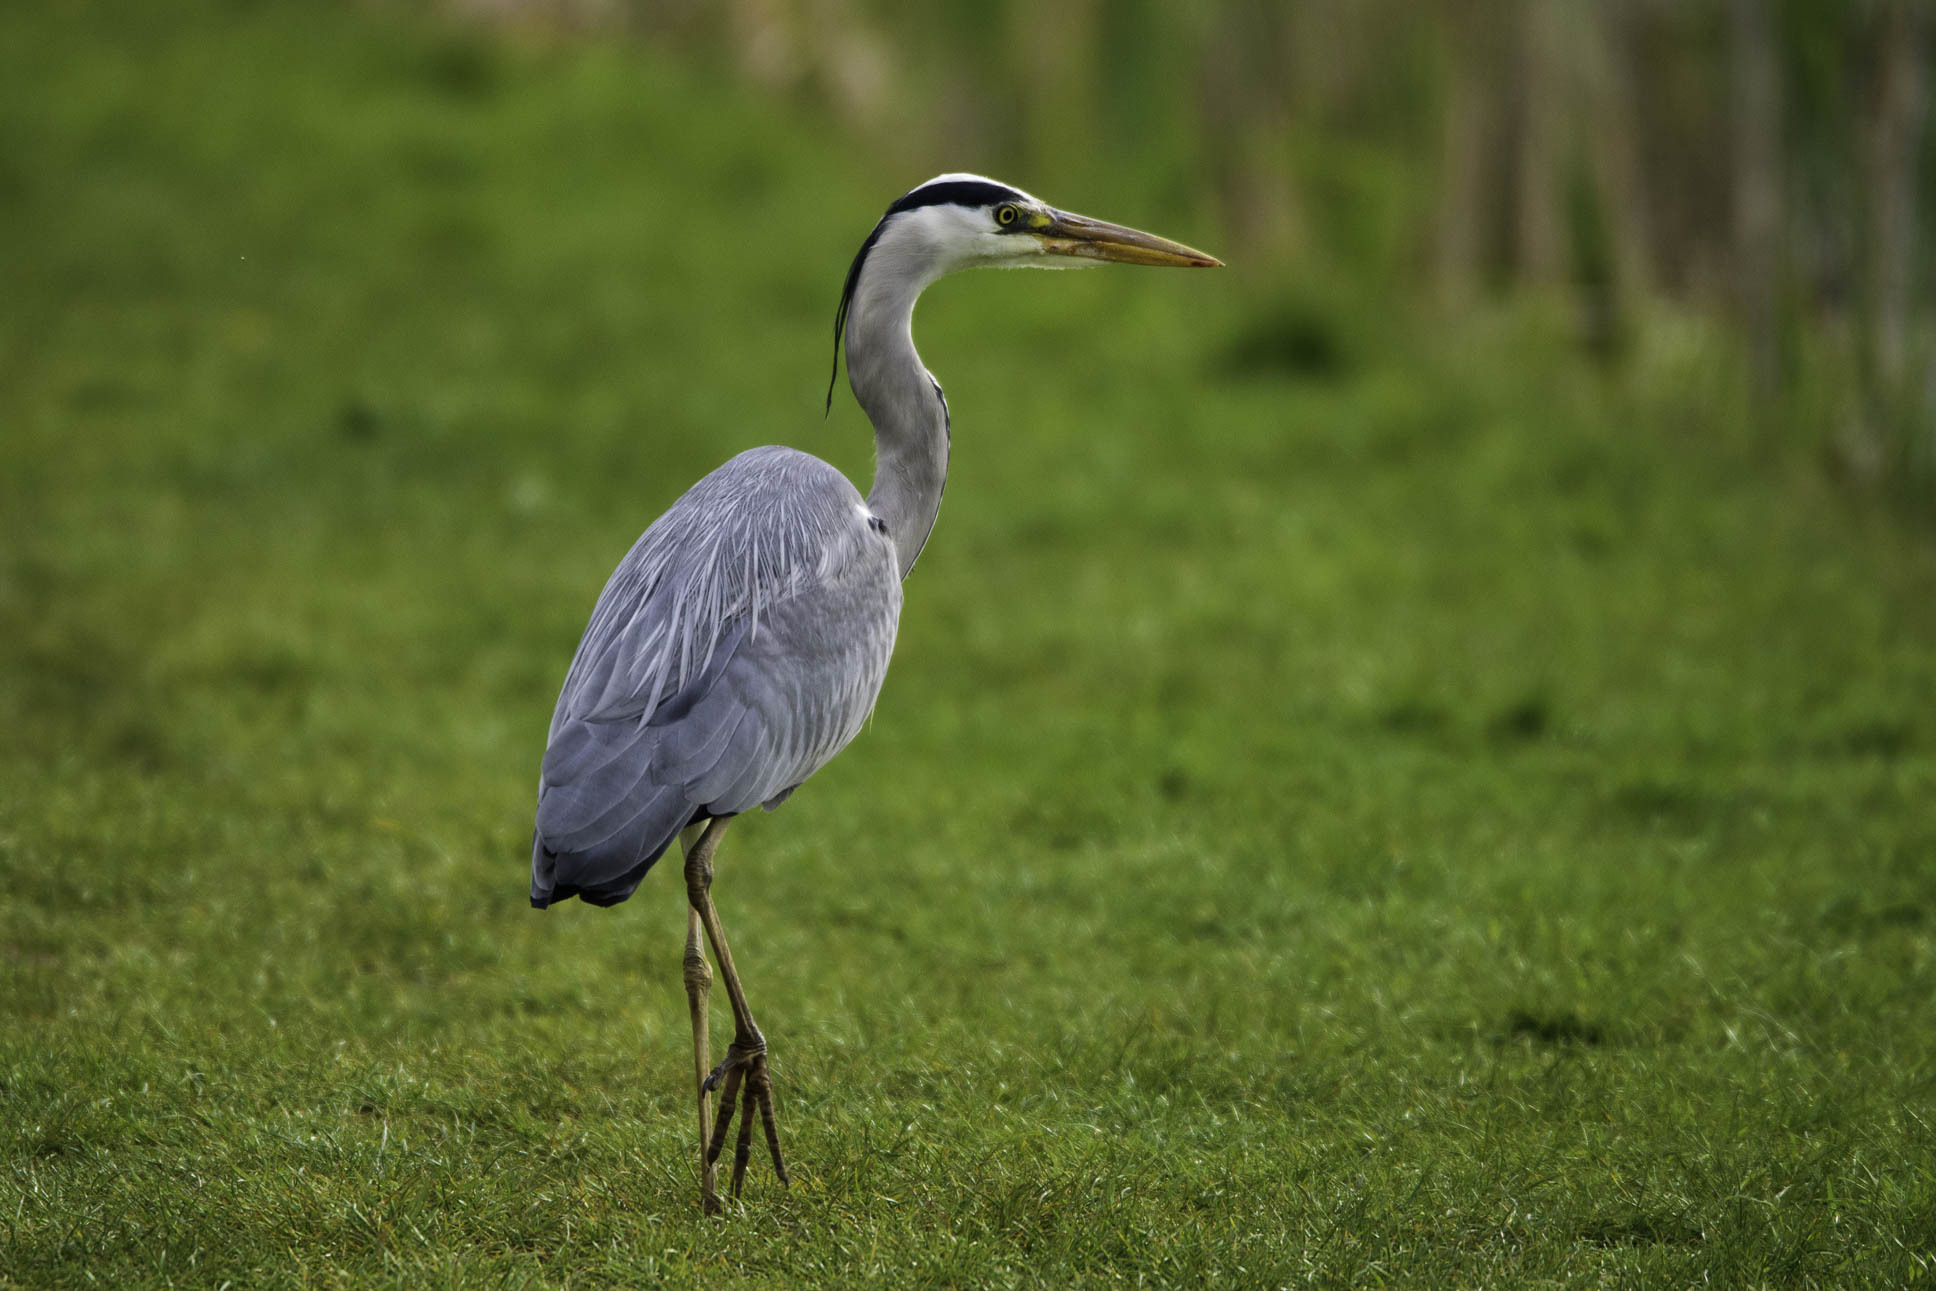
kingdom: Animalia
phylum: Chordata
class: Aves
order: Pelecaniformes
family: Ardeidae
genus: Ardea
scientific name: Ardea cinerea
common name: Grey heron
